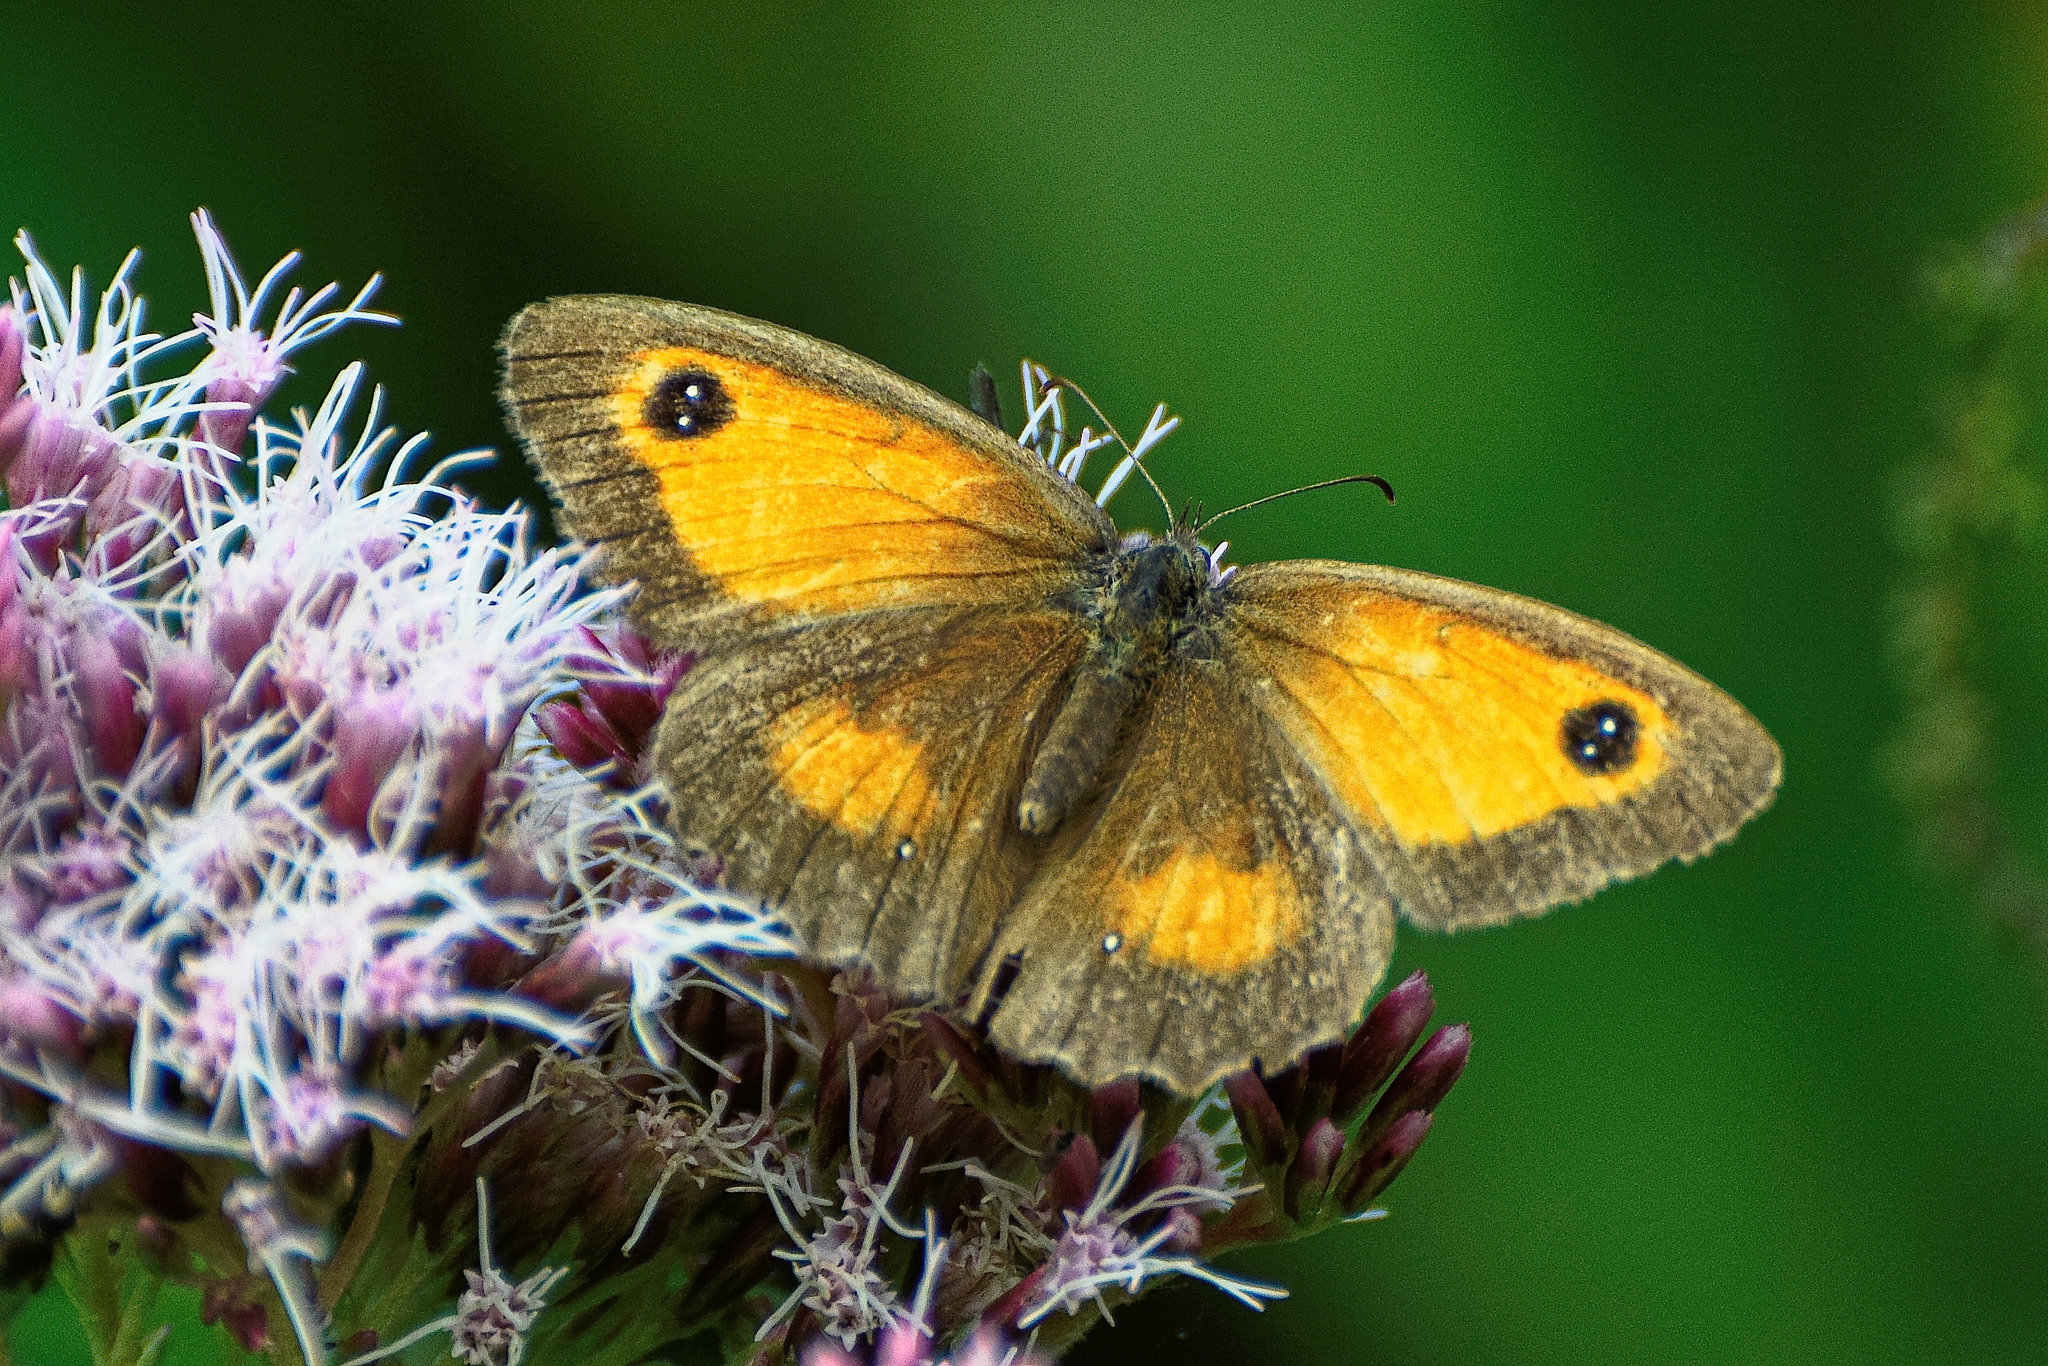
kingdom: Animalia
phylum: Arthropoda
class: Insecta
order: Lepidoptera
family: Nymphalidae
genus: Pyronia
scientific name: Pyronia tithonus
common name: Gatekeeper
